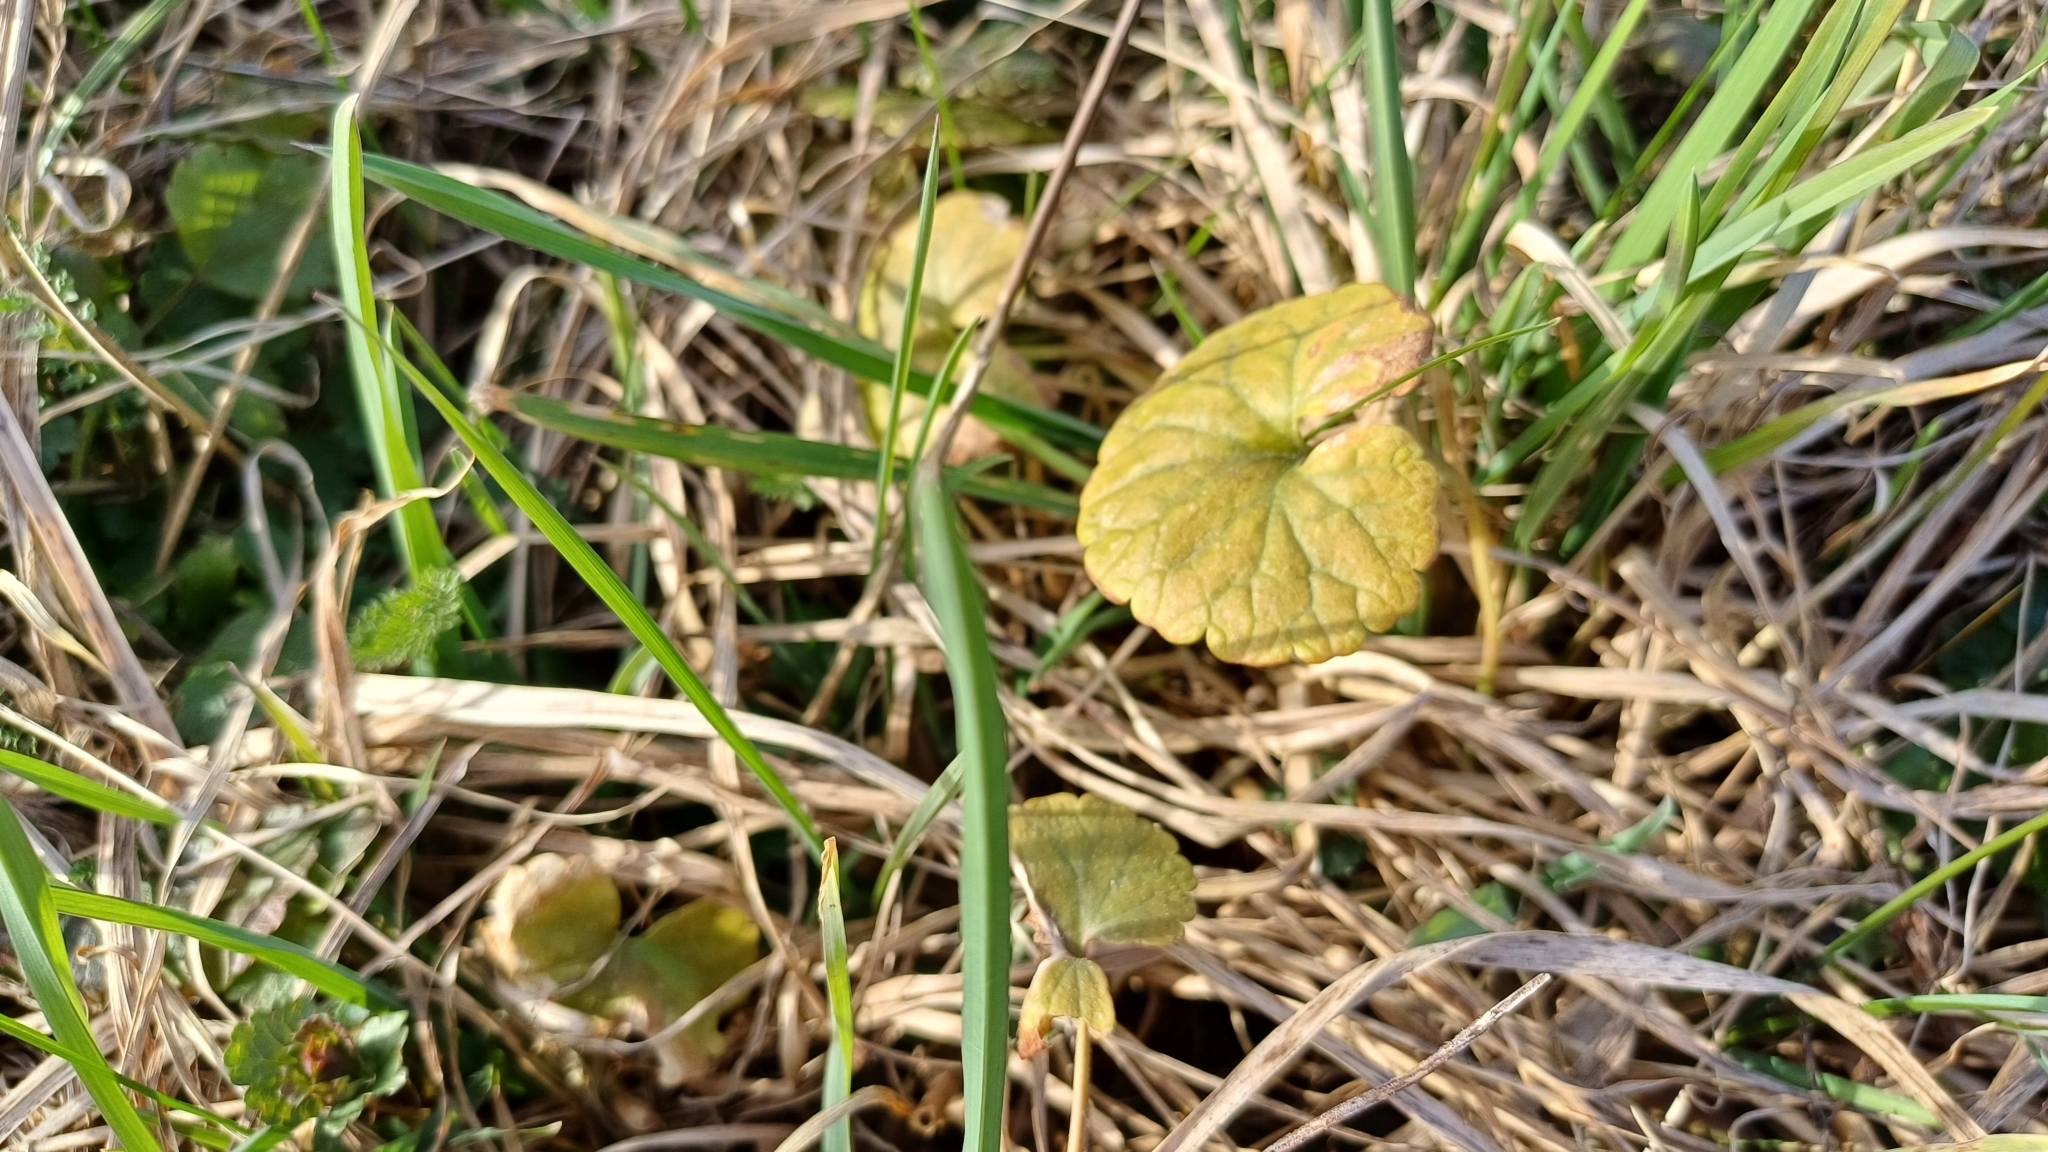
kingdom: Plantae
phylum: Tracheophyta
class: Magnoliopsida
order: Lamiales
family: Lamiaceae
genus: Glechoma
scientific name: Glechoma hederacea
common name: Ground ivy
